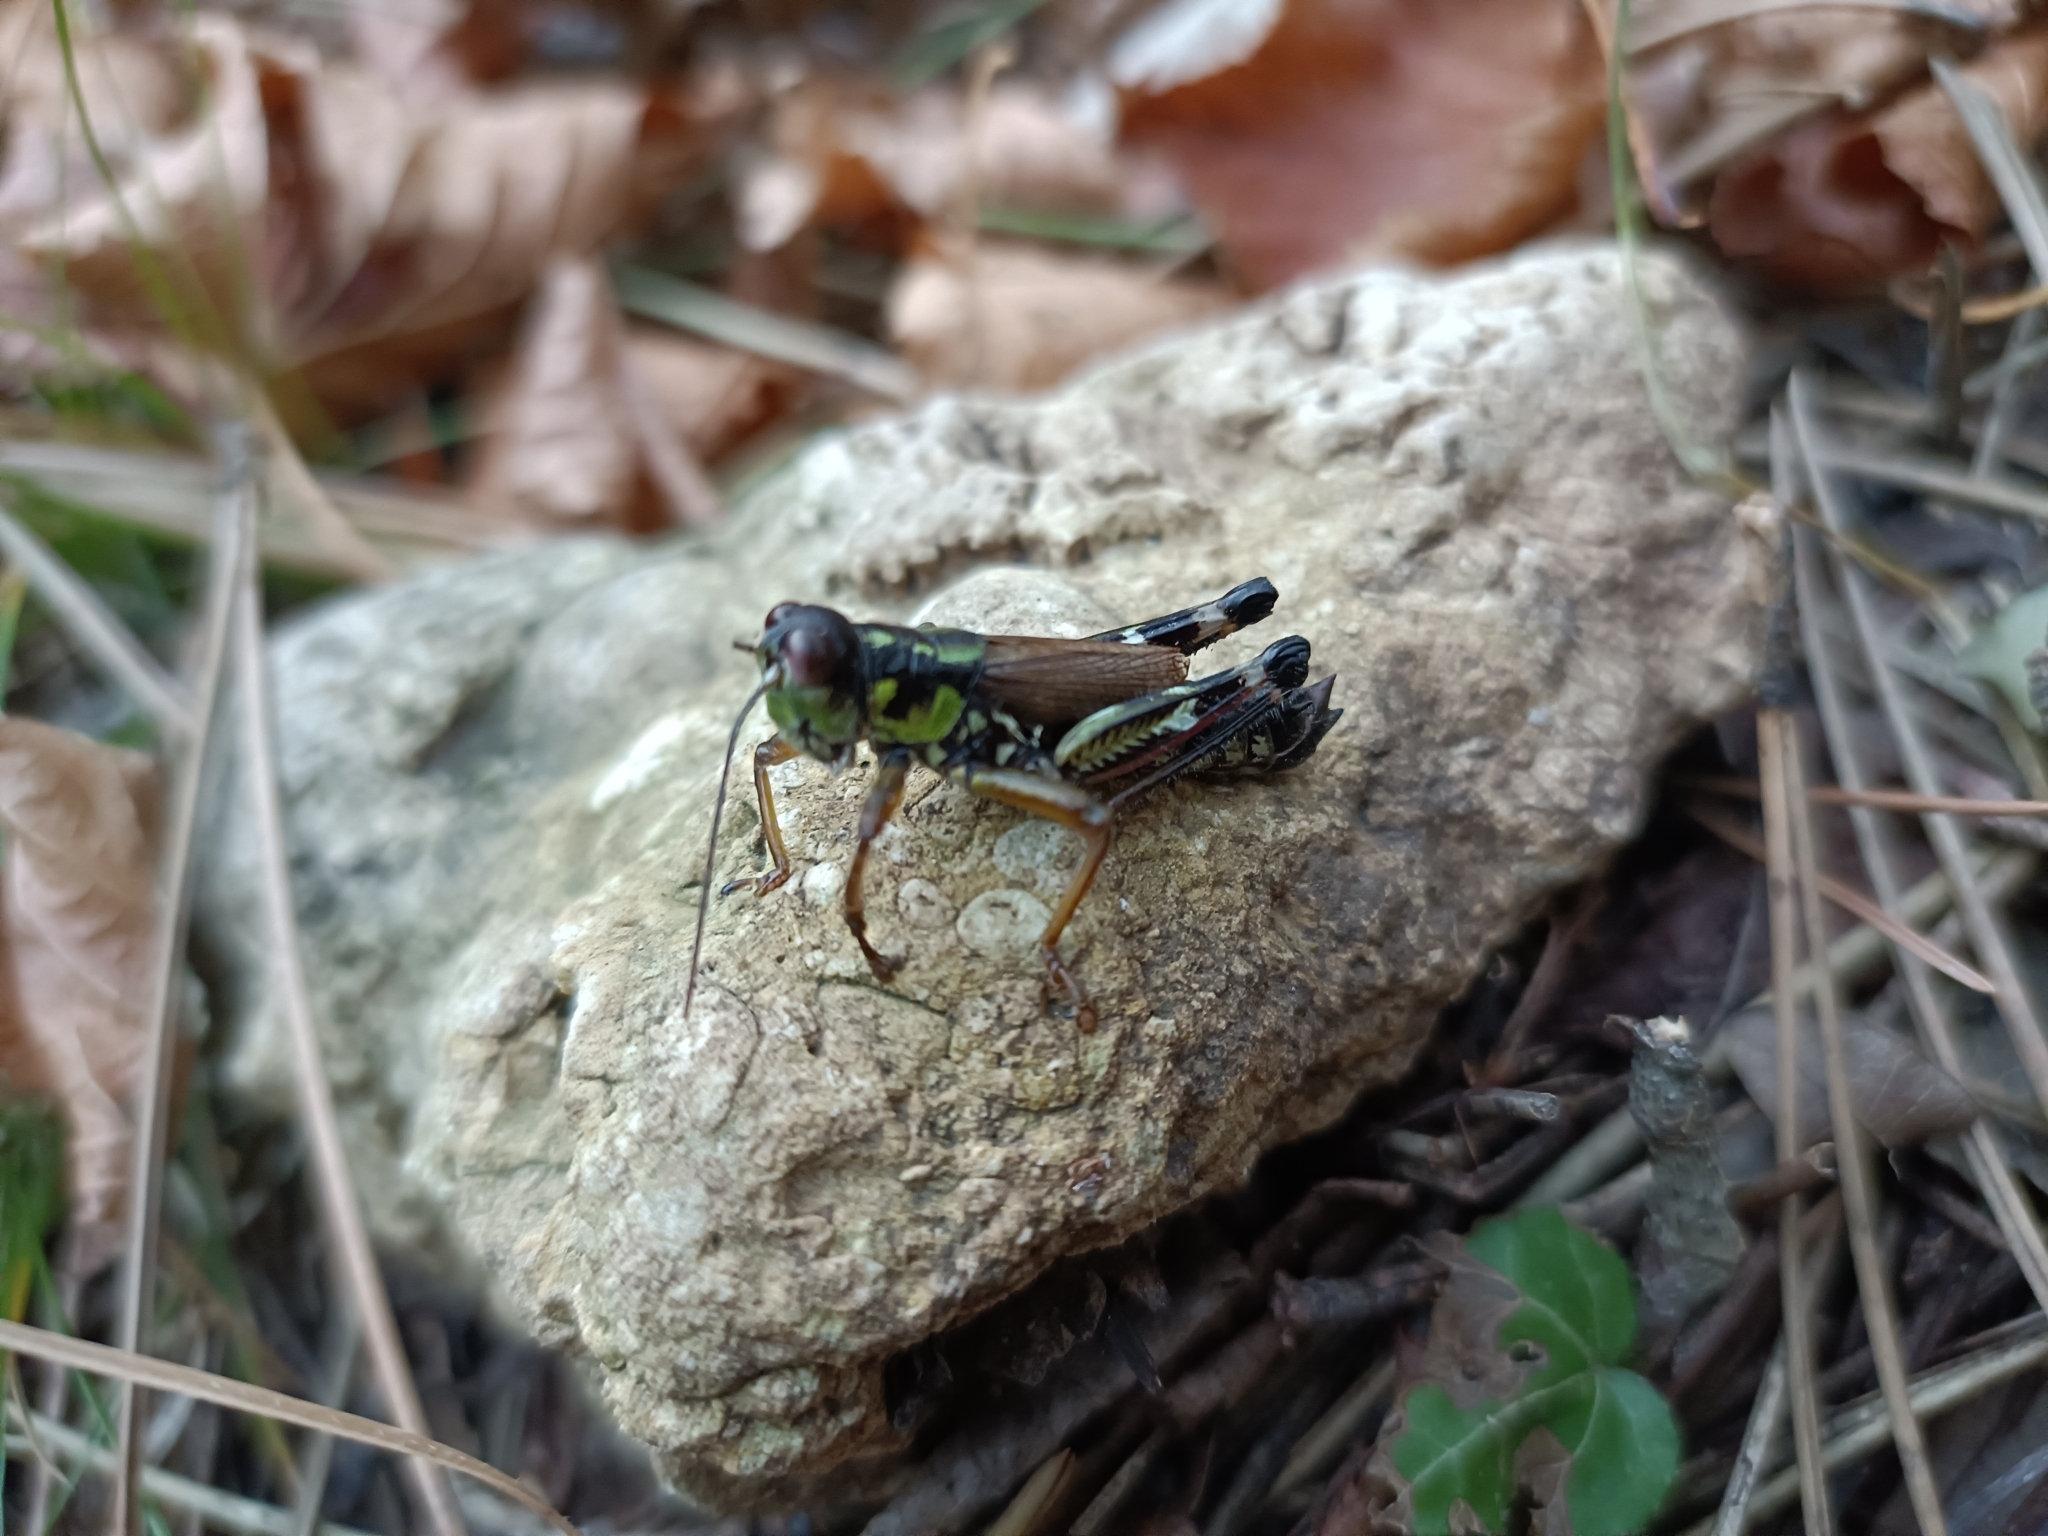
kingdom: Animalia
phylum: Arthropoda
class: Insecta
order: Orthoptera
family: Acrididae
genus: Miramella
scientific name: Miramella alpina
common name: Green mountain grasshopper
